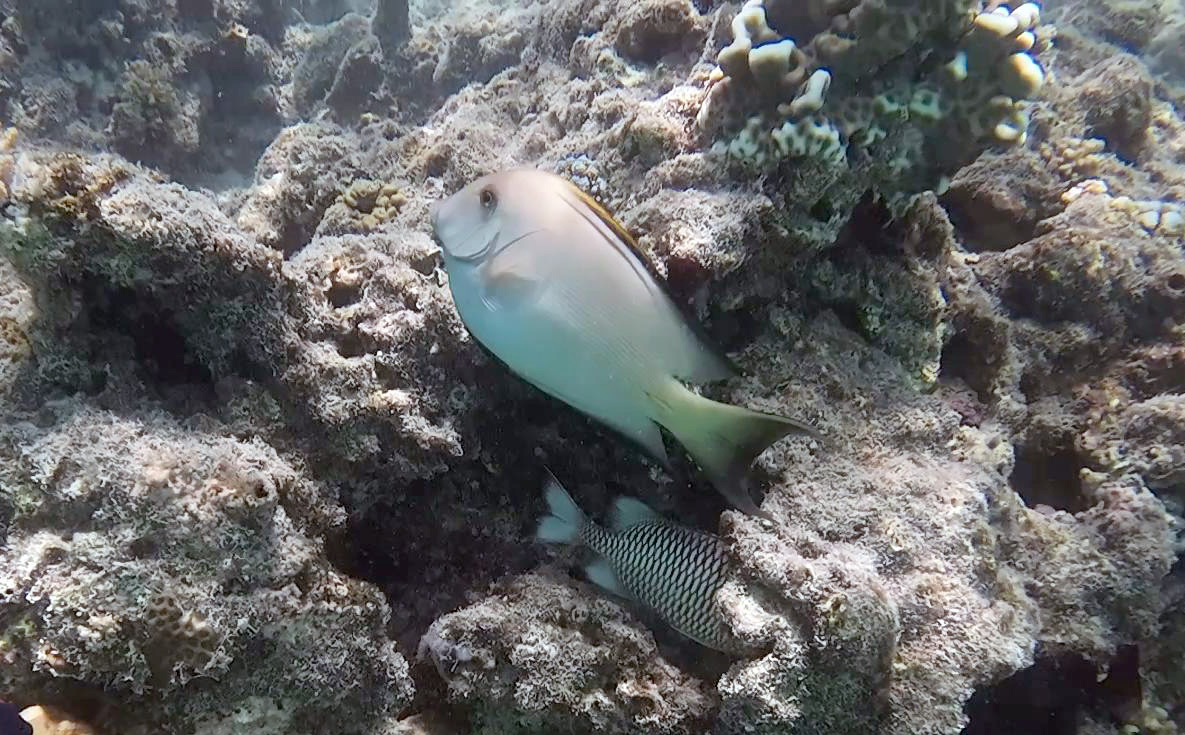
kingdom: Animalia
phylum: Chordata
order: Perciformes
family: Acanthuridae
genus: Ctenochaetus
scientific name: Ctenochaetus striatus
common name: Bristle-toothed surgeonfish
